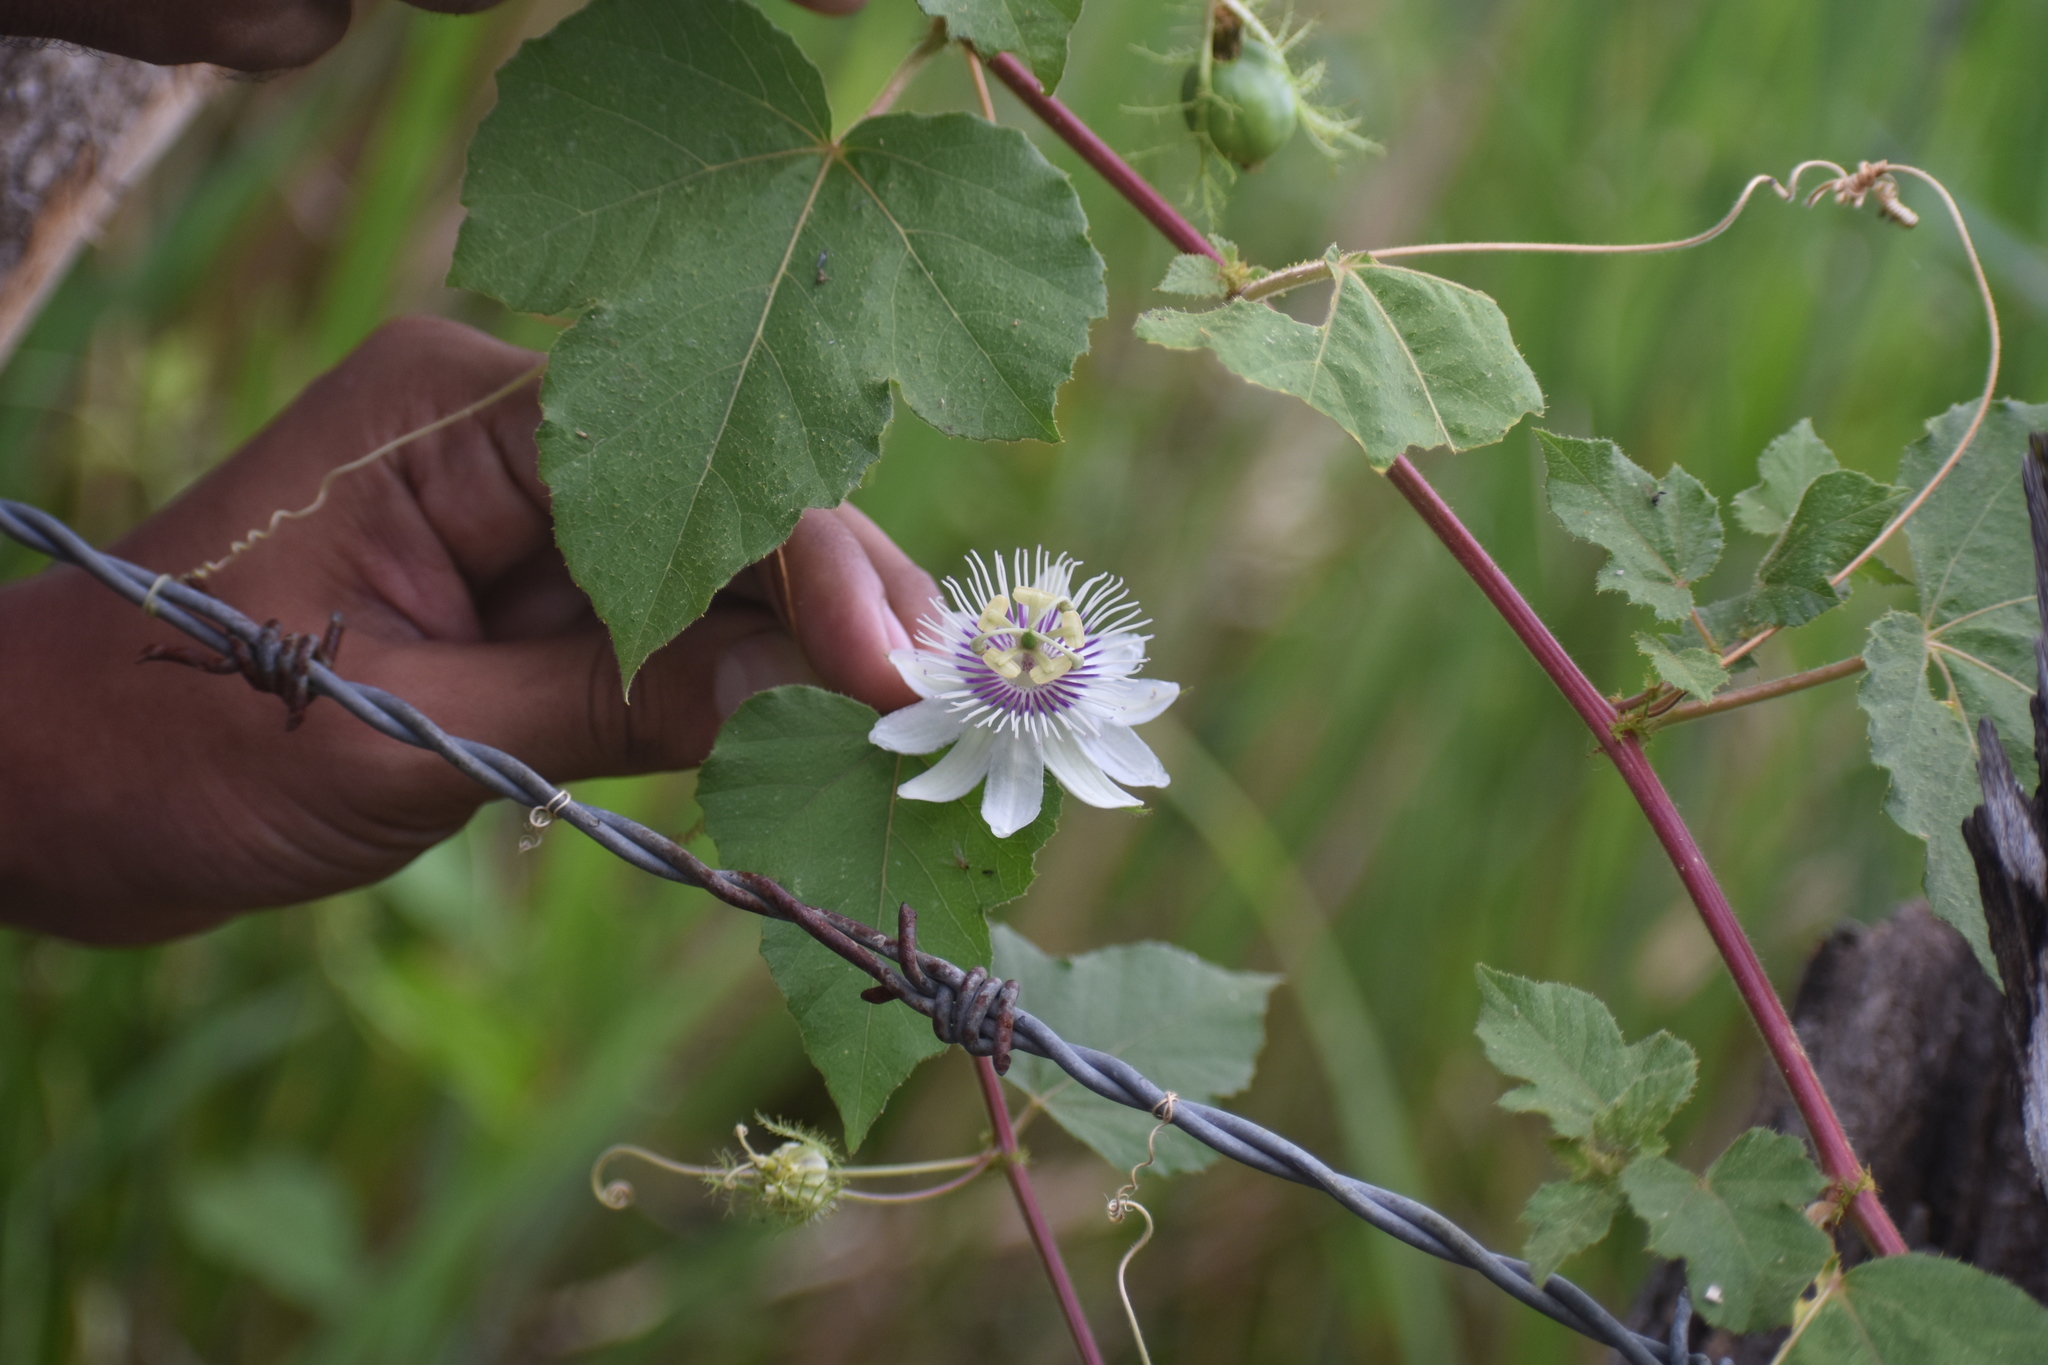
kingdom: Plantae
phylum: Tracheophyta
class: Magnoliopsida
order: Malpighiales
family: Passifloraceae
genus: Passiflora
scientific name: Passiflora foetida
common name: Fetid passionflower
